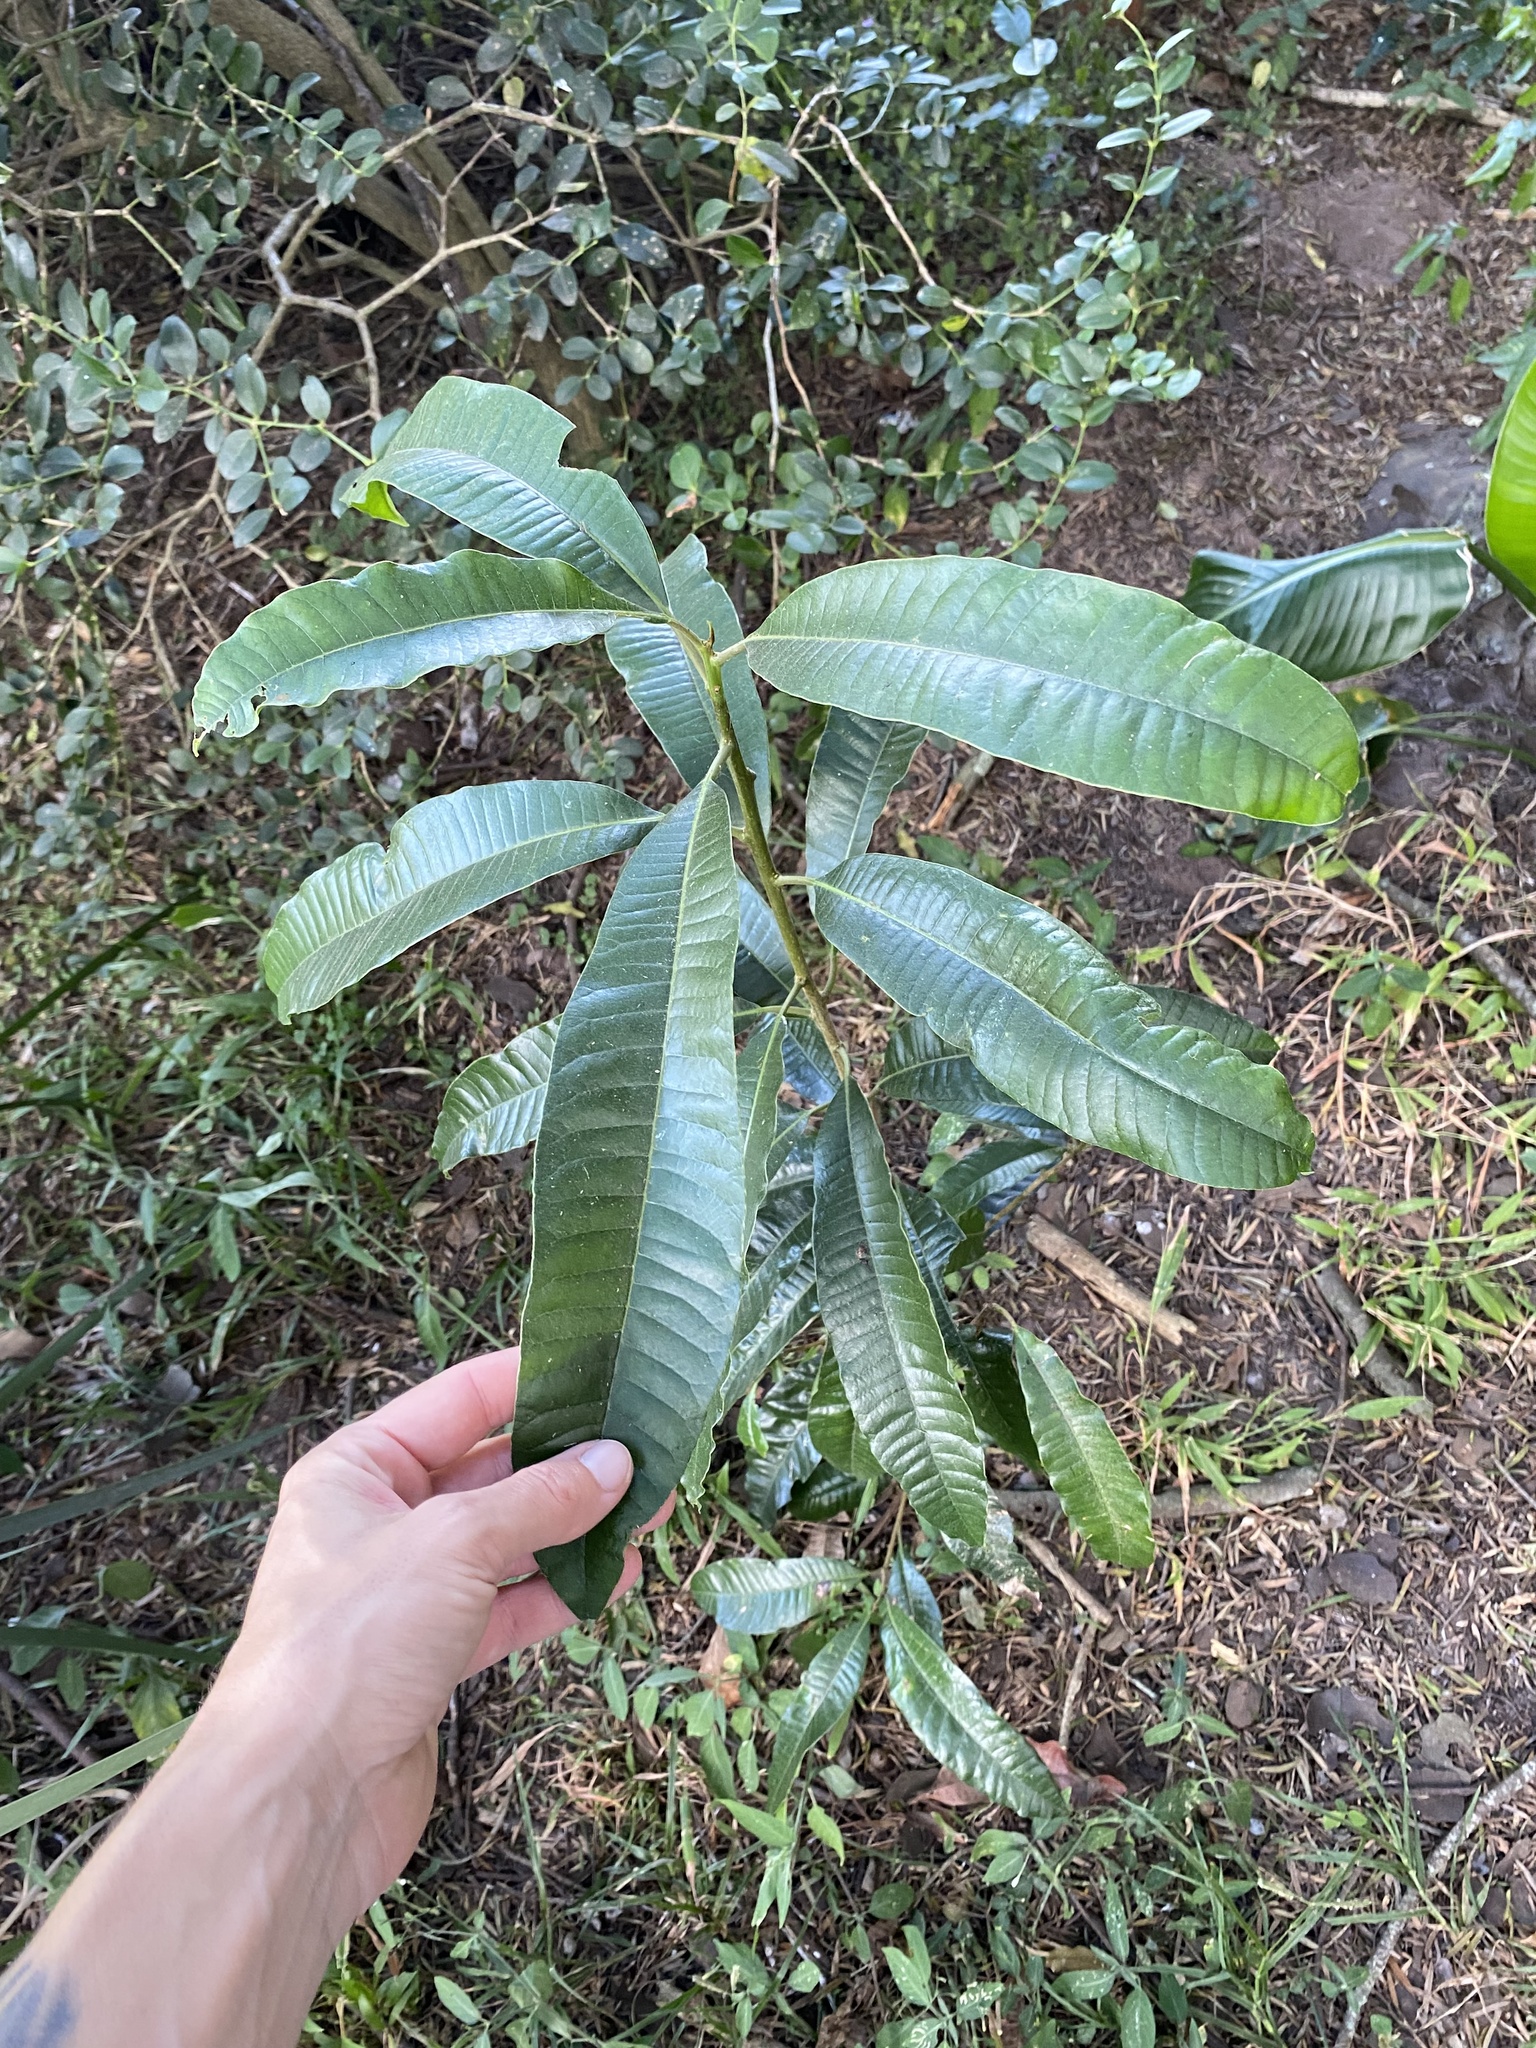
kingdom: Plantae
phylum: Tracheophyta
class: Magnoliopsida
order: Sapindales
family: Anacardiaceae
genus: Protorhus
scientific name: Protorhus longifolia
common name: Red-beech
